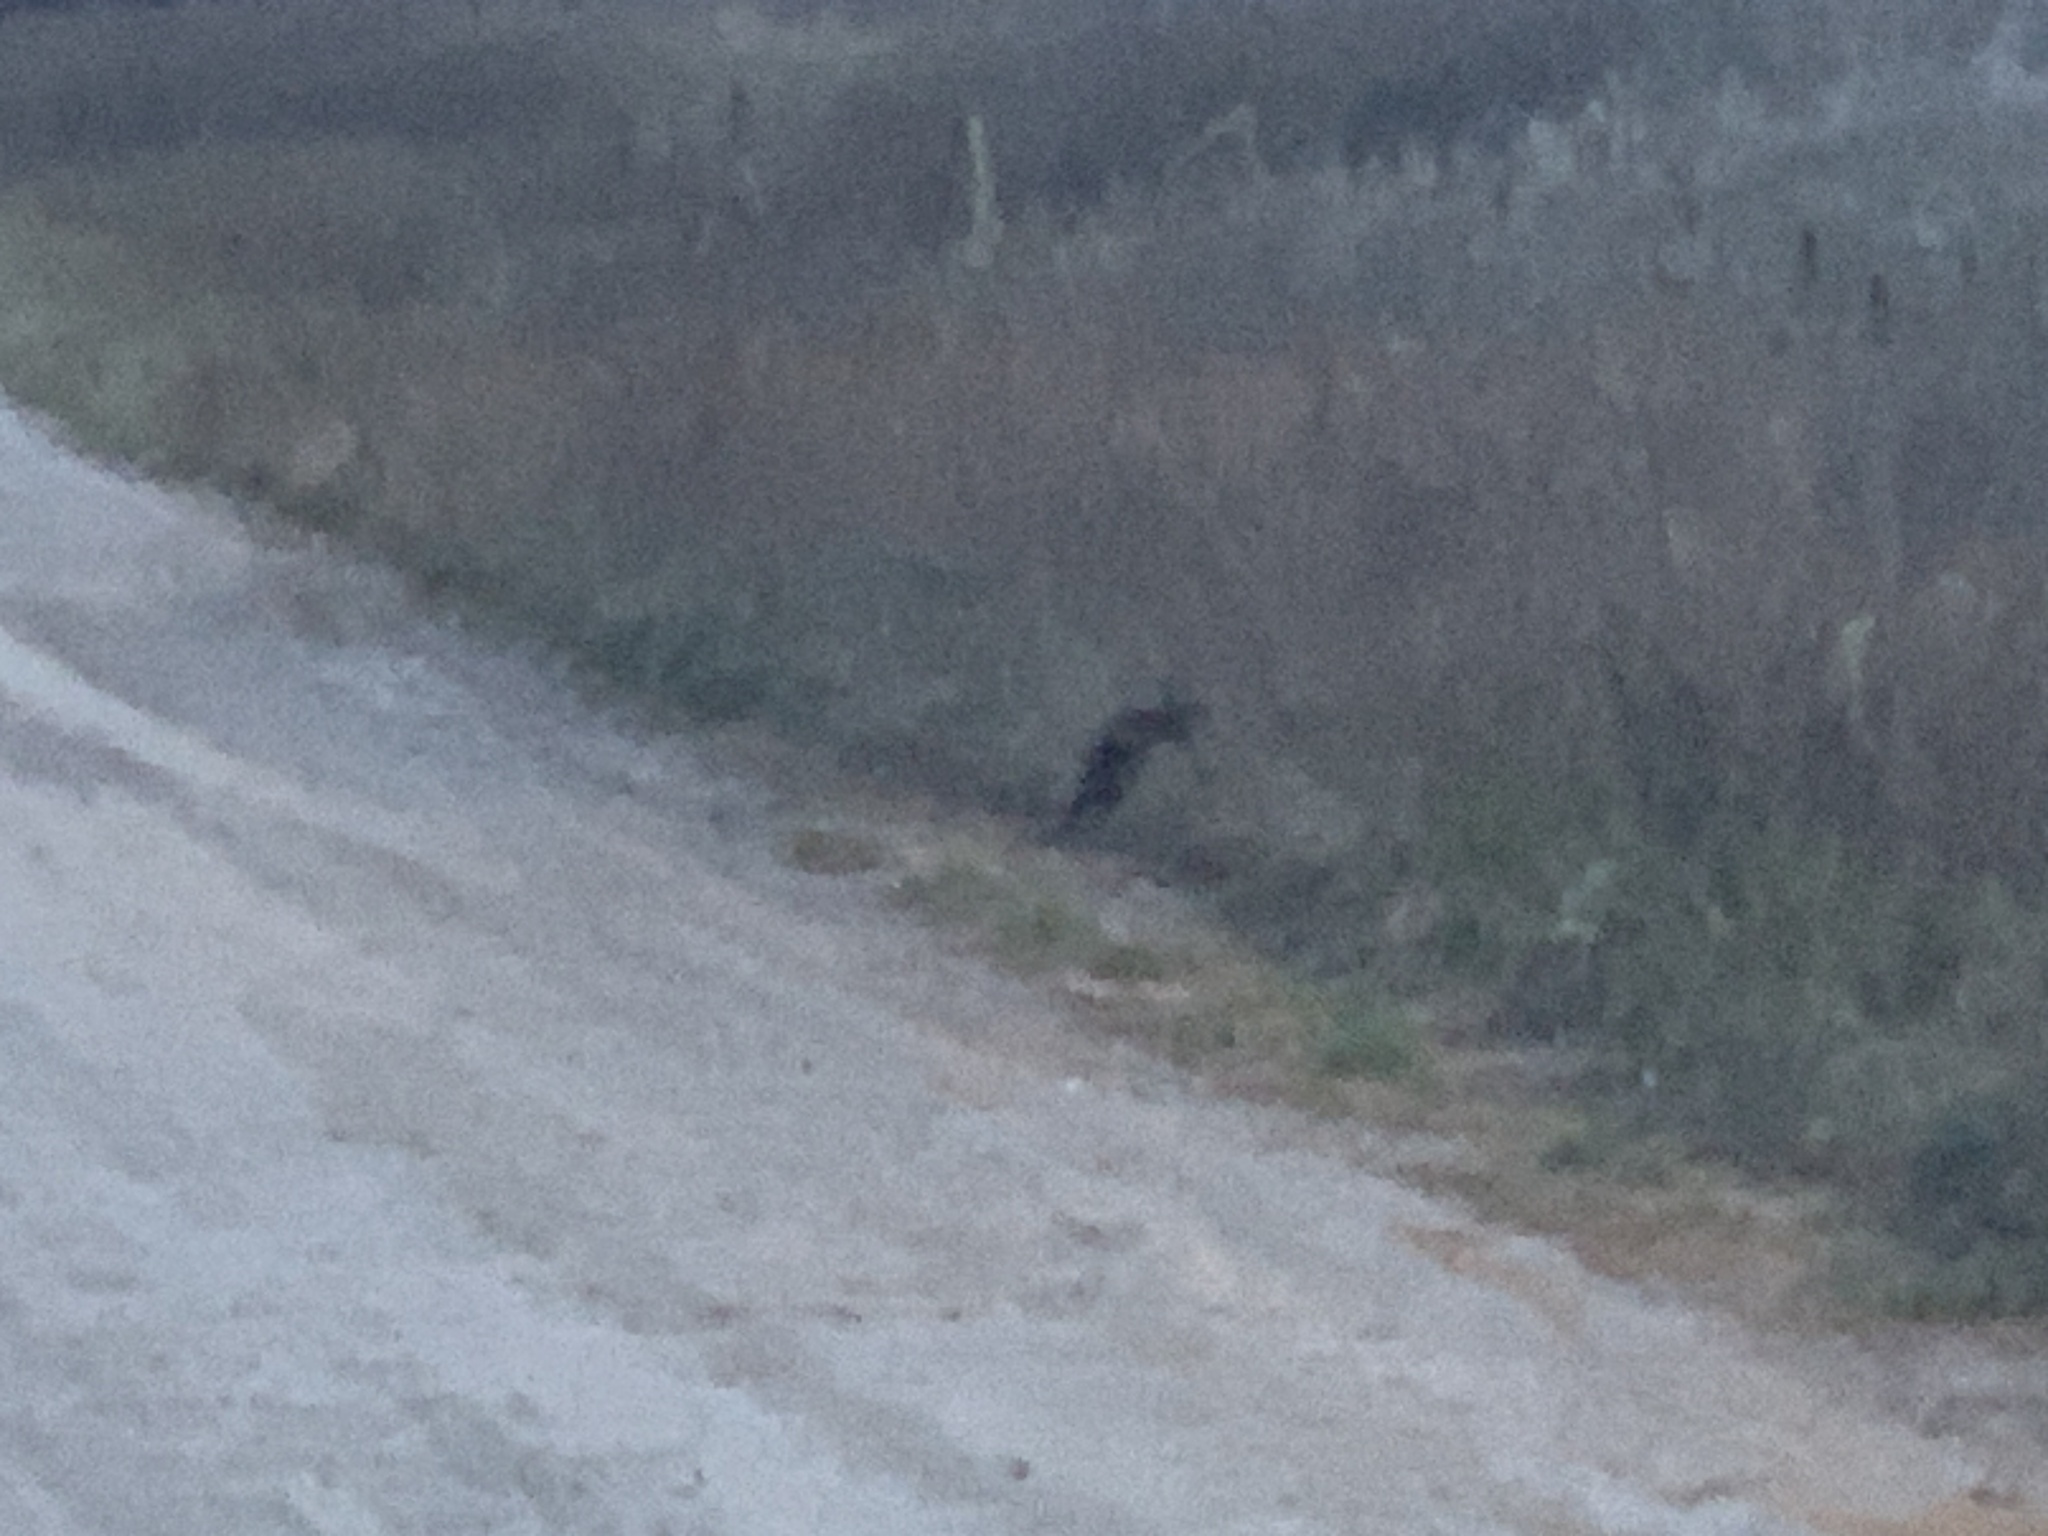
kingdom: Animalia
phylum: Chordata
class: Mammalia
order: Rodentia
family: Cricetidae
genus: Ondatra
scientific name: Ondatra zibethicus
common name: Muskrat
